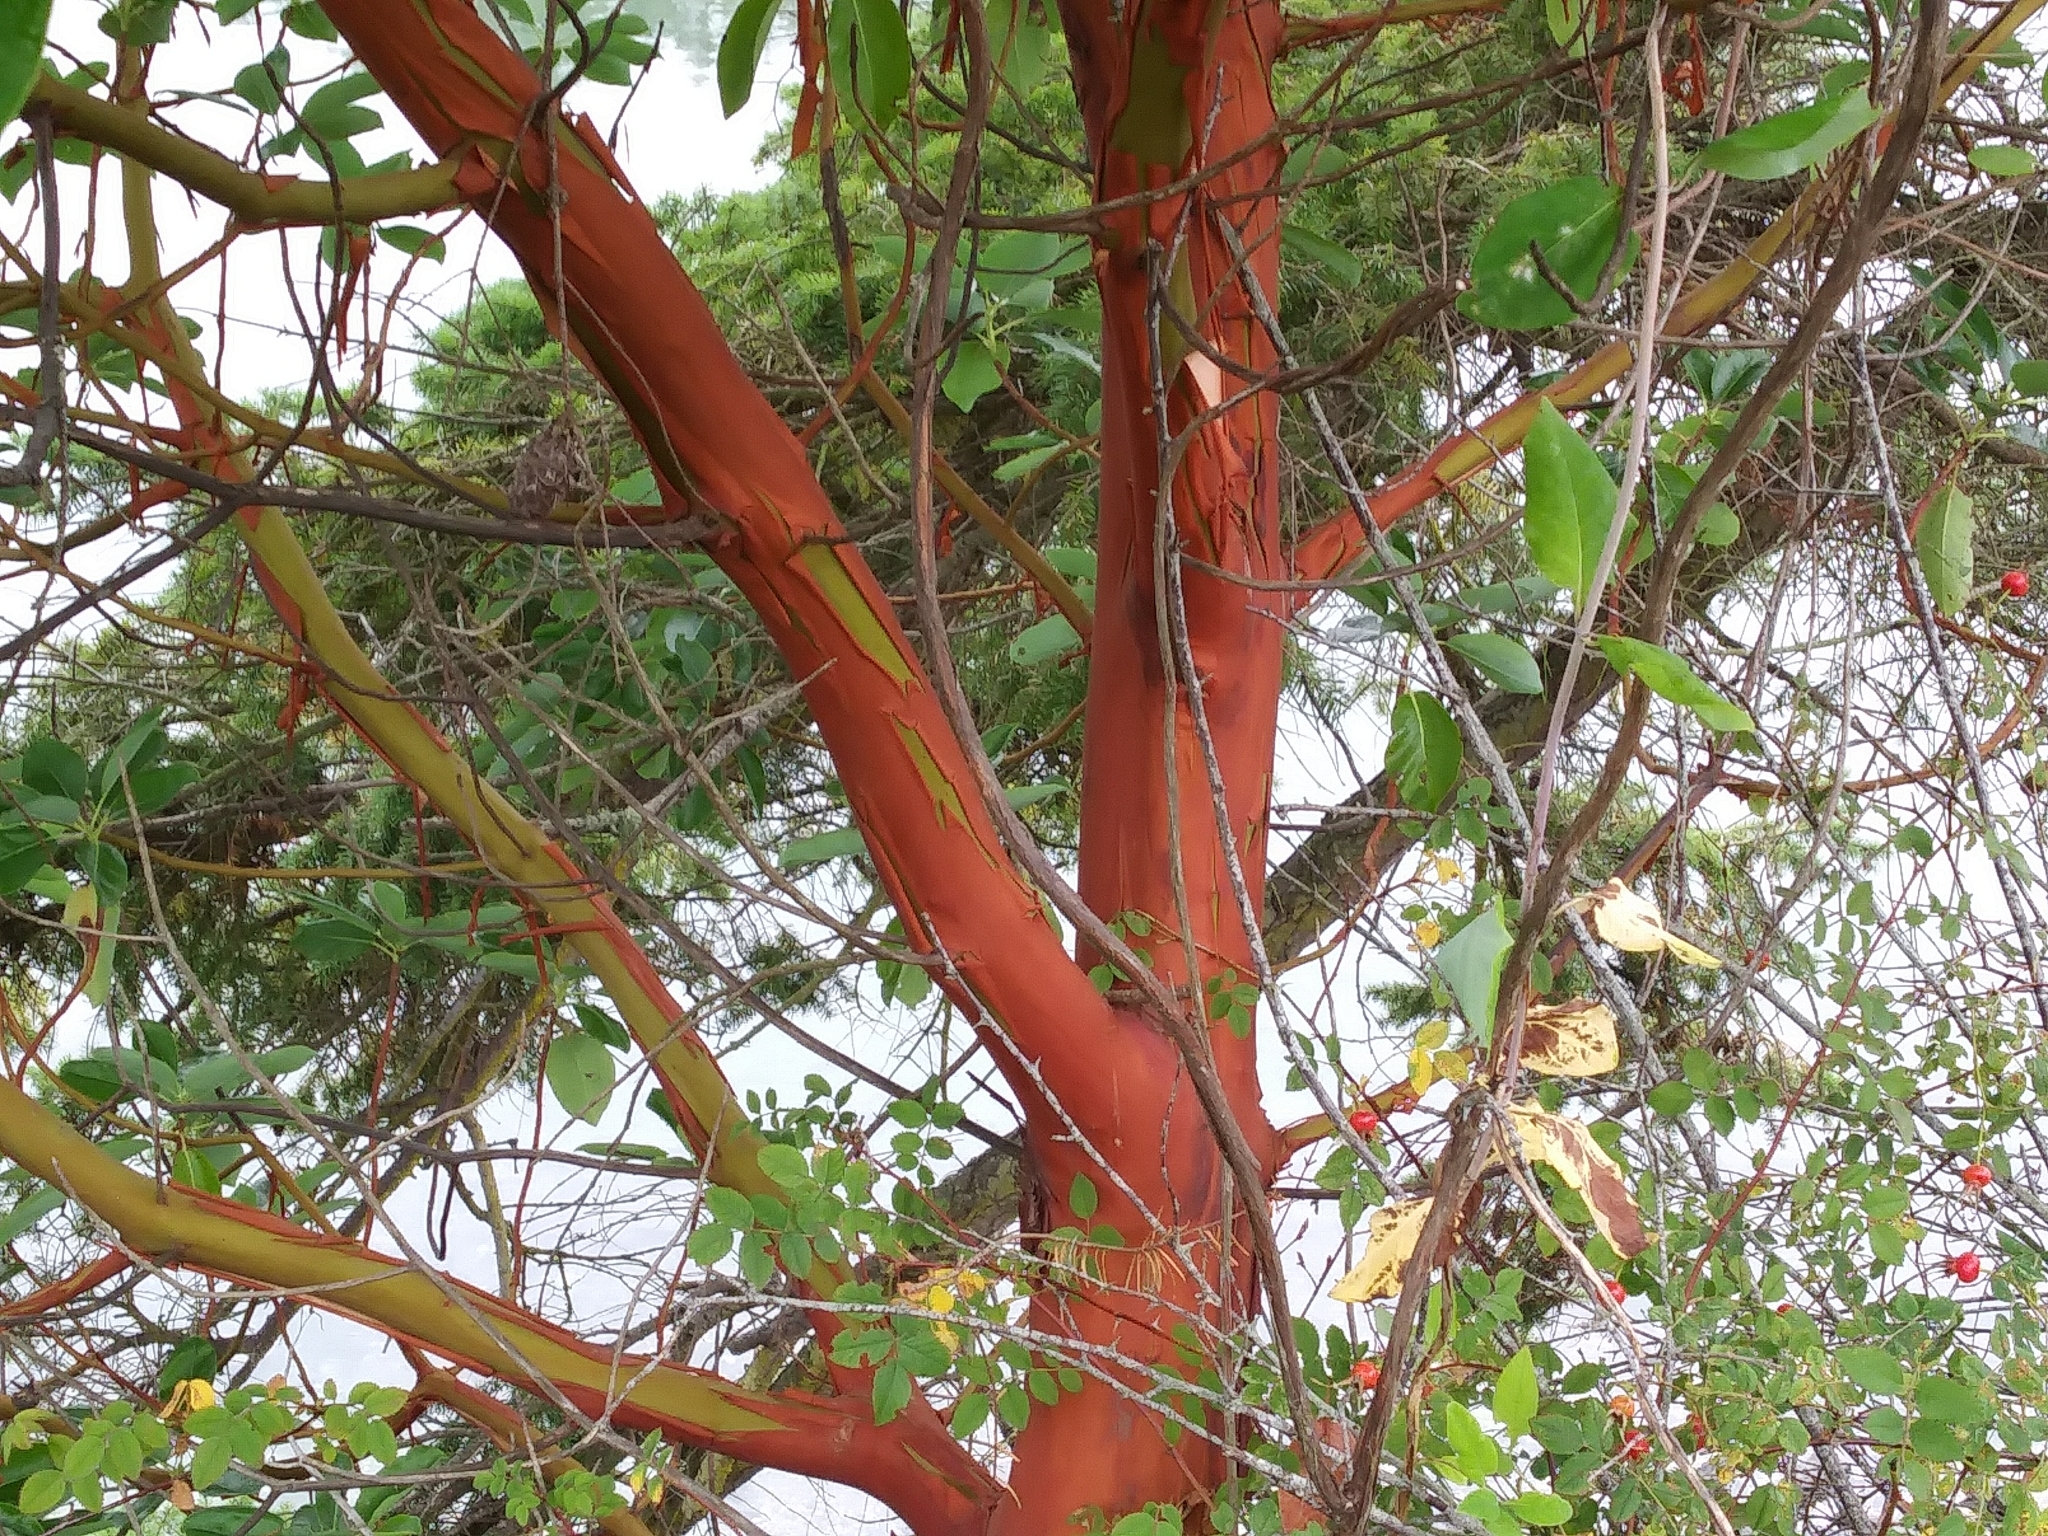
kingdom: Plantae
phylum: Tracheophyta
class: Magnoliopsida
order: Ericales
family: Ericaceae
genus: Arbutus
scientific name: Arbutus menziesii
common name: Pacific madrone
